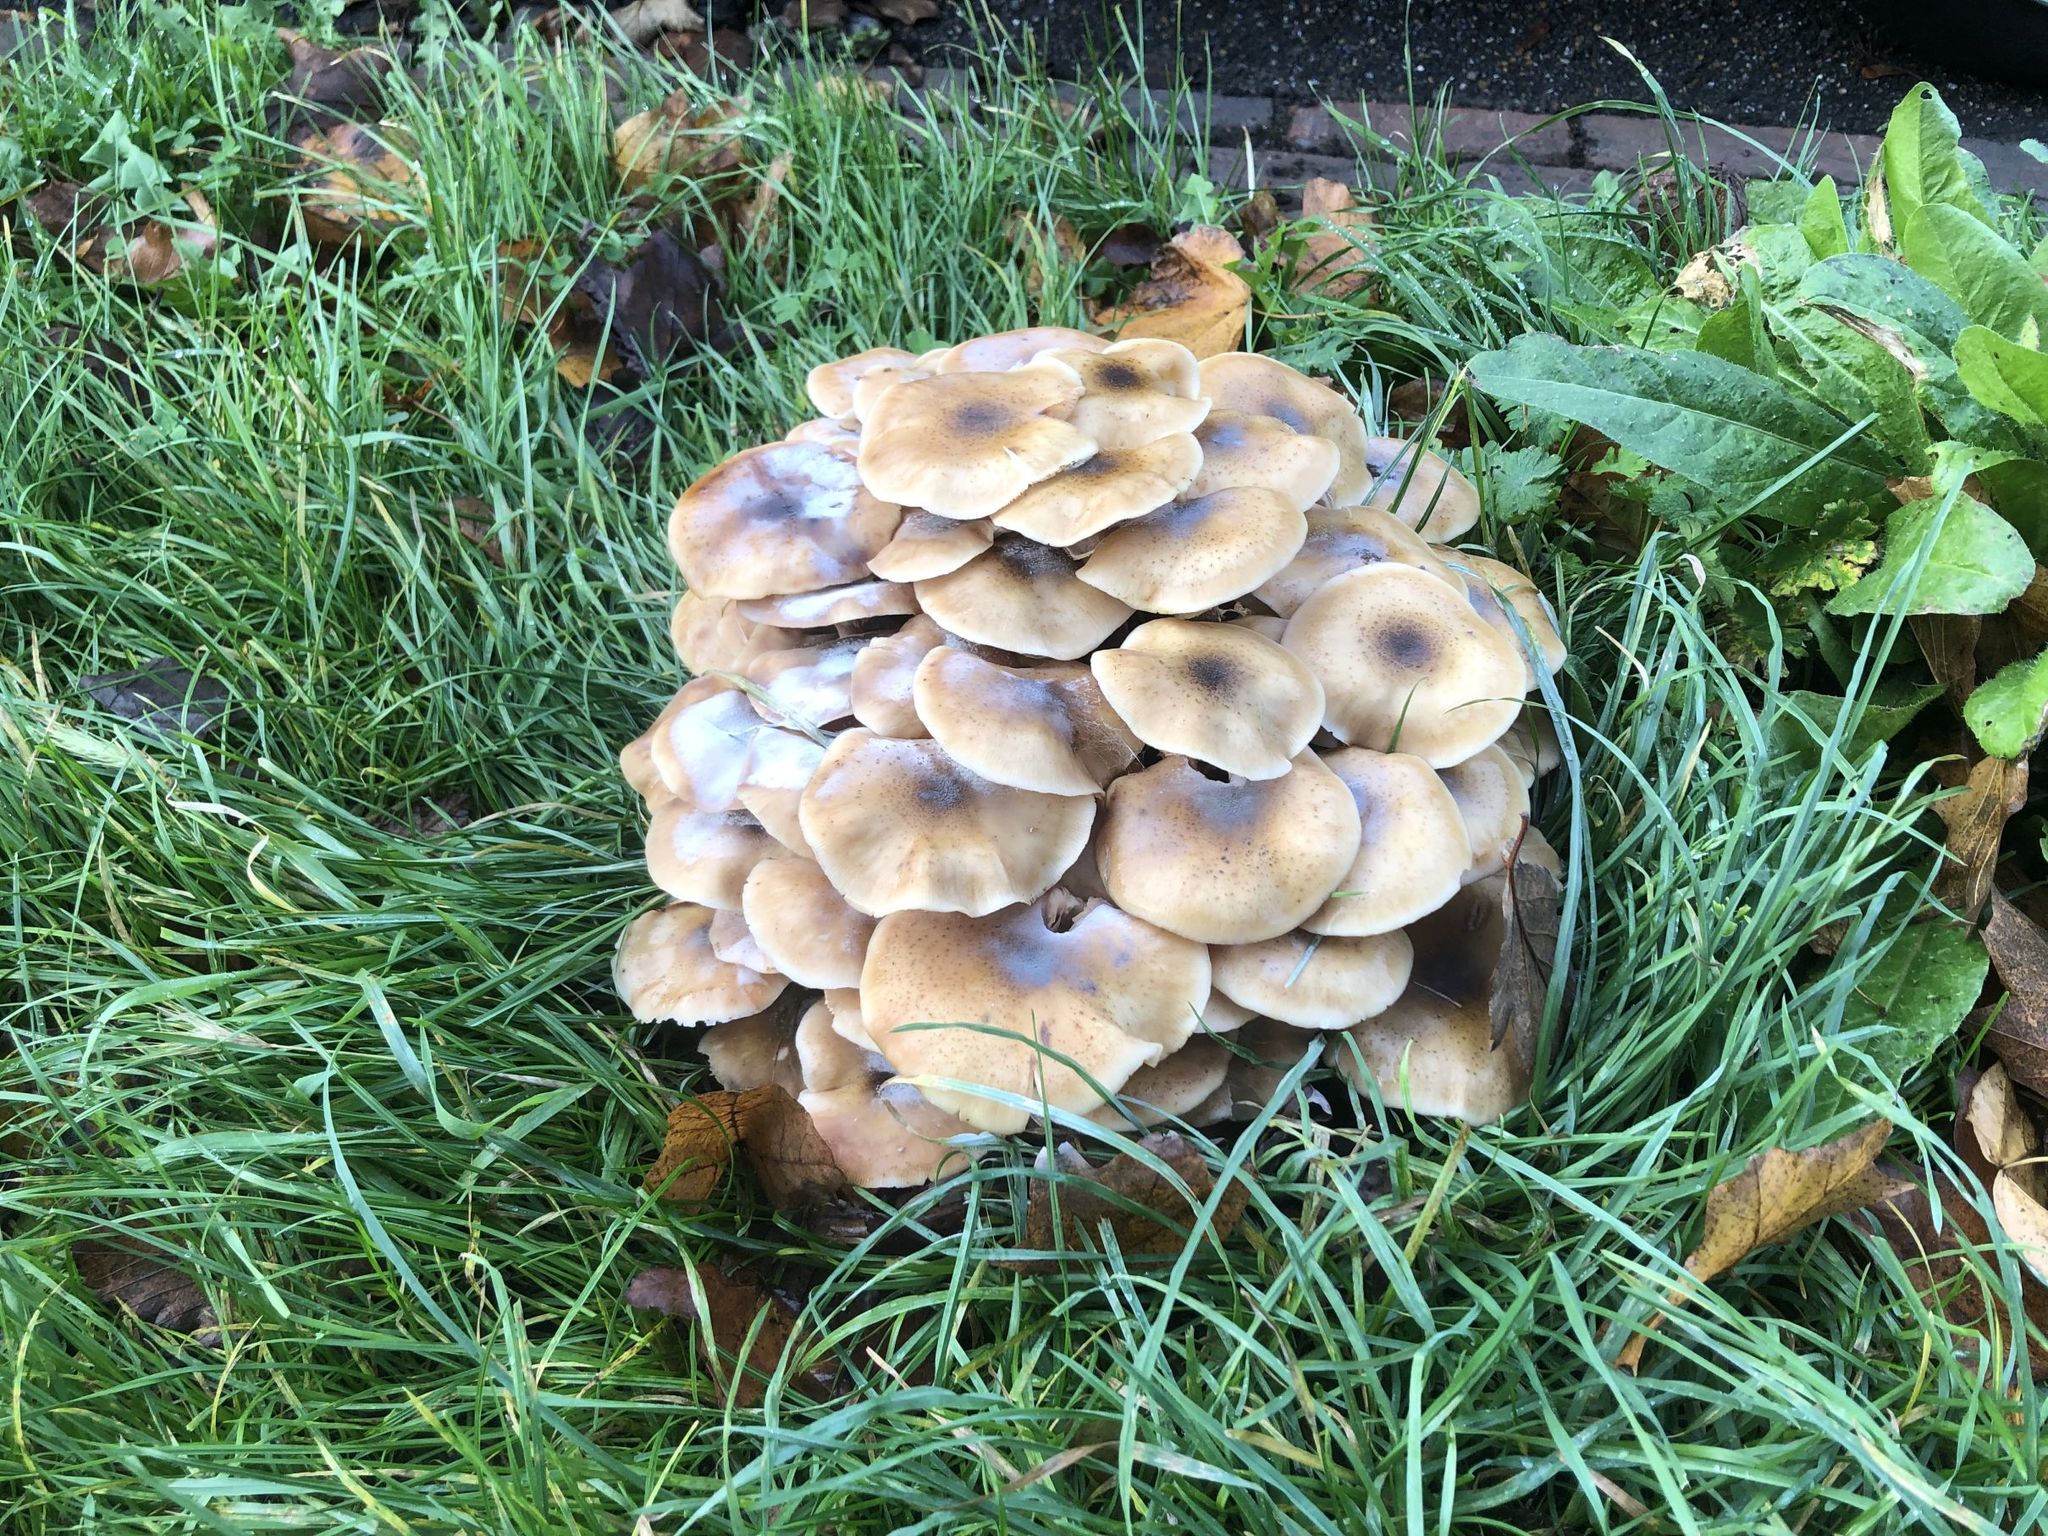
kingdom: Fungi
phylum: Basidiomycota
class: Agaricomycetes
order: Agaricales
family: Physalacriaceae
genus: Armillaria
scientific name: Armillaria mellea
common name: Honey fungus
